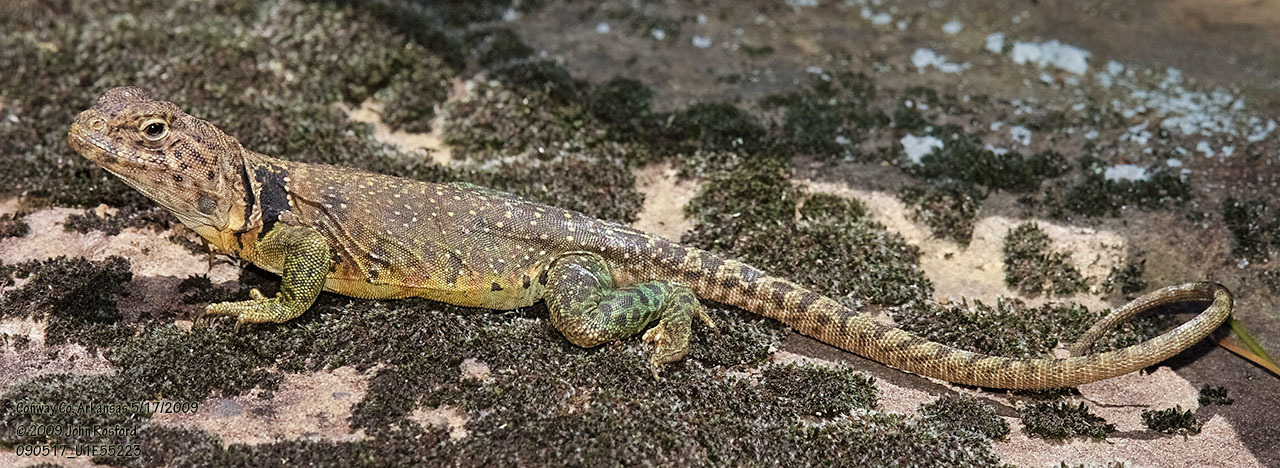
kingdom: Animalia
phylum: Chordata
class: Squamata
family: Crotaphytidae
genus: Crotaphytus
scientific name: Crotaphytus collaris
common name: Collared lizard
